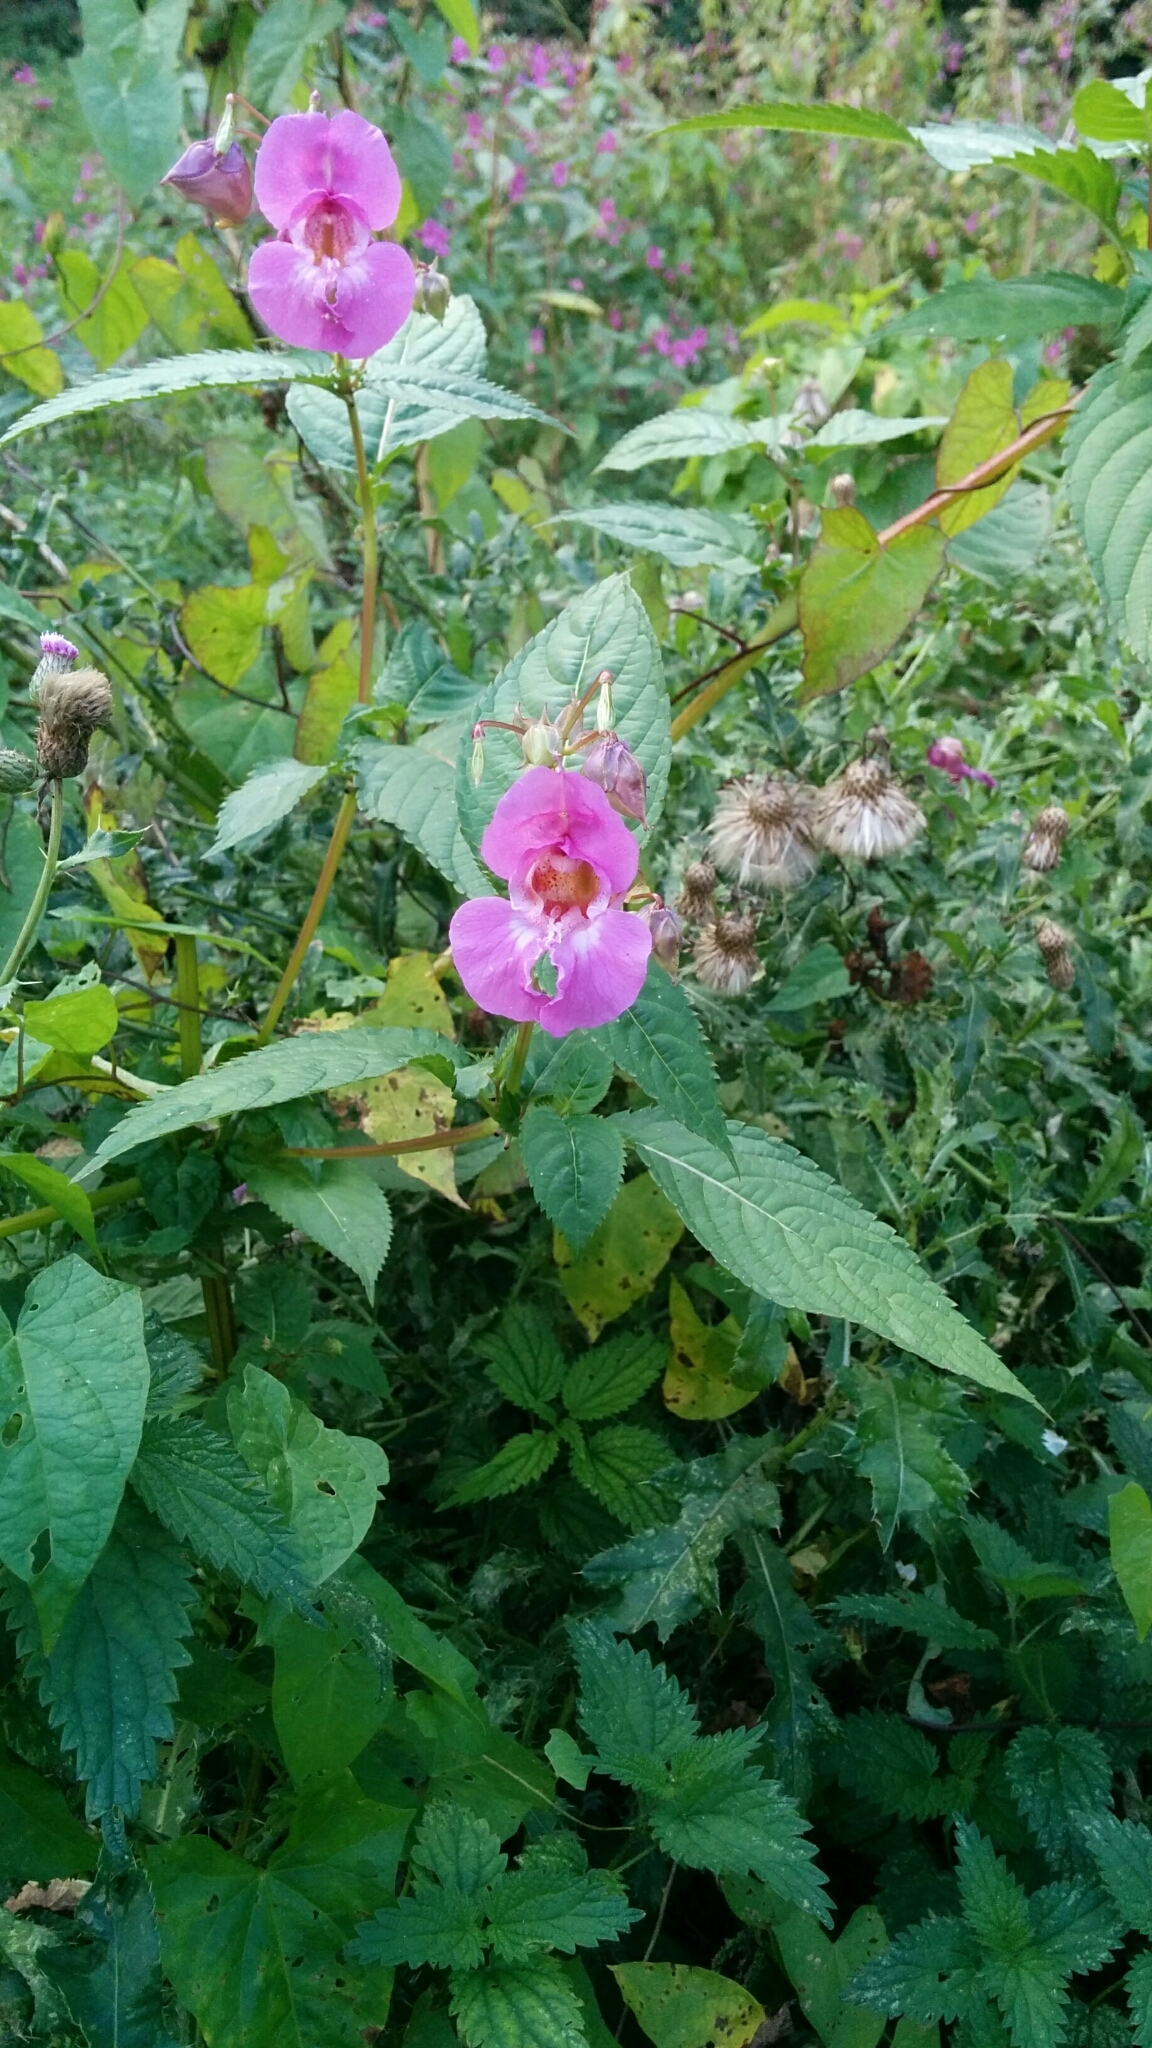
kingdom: Plantae
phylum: Tracheophyta
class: Magnoliopsida
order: Ericales
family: Balsaminaceae
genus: Impatiens
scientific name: Impatiens glandulifera
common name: Himalayan balsam
